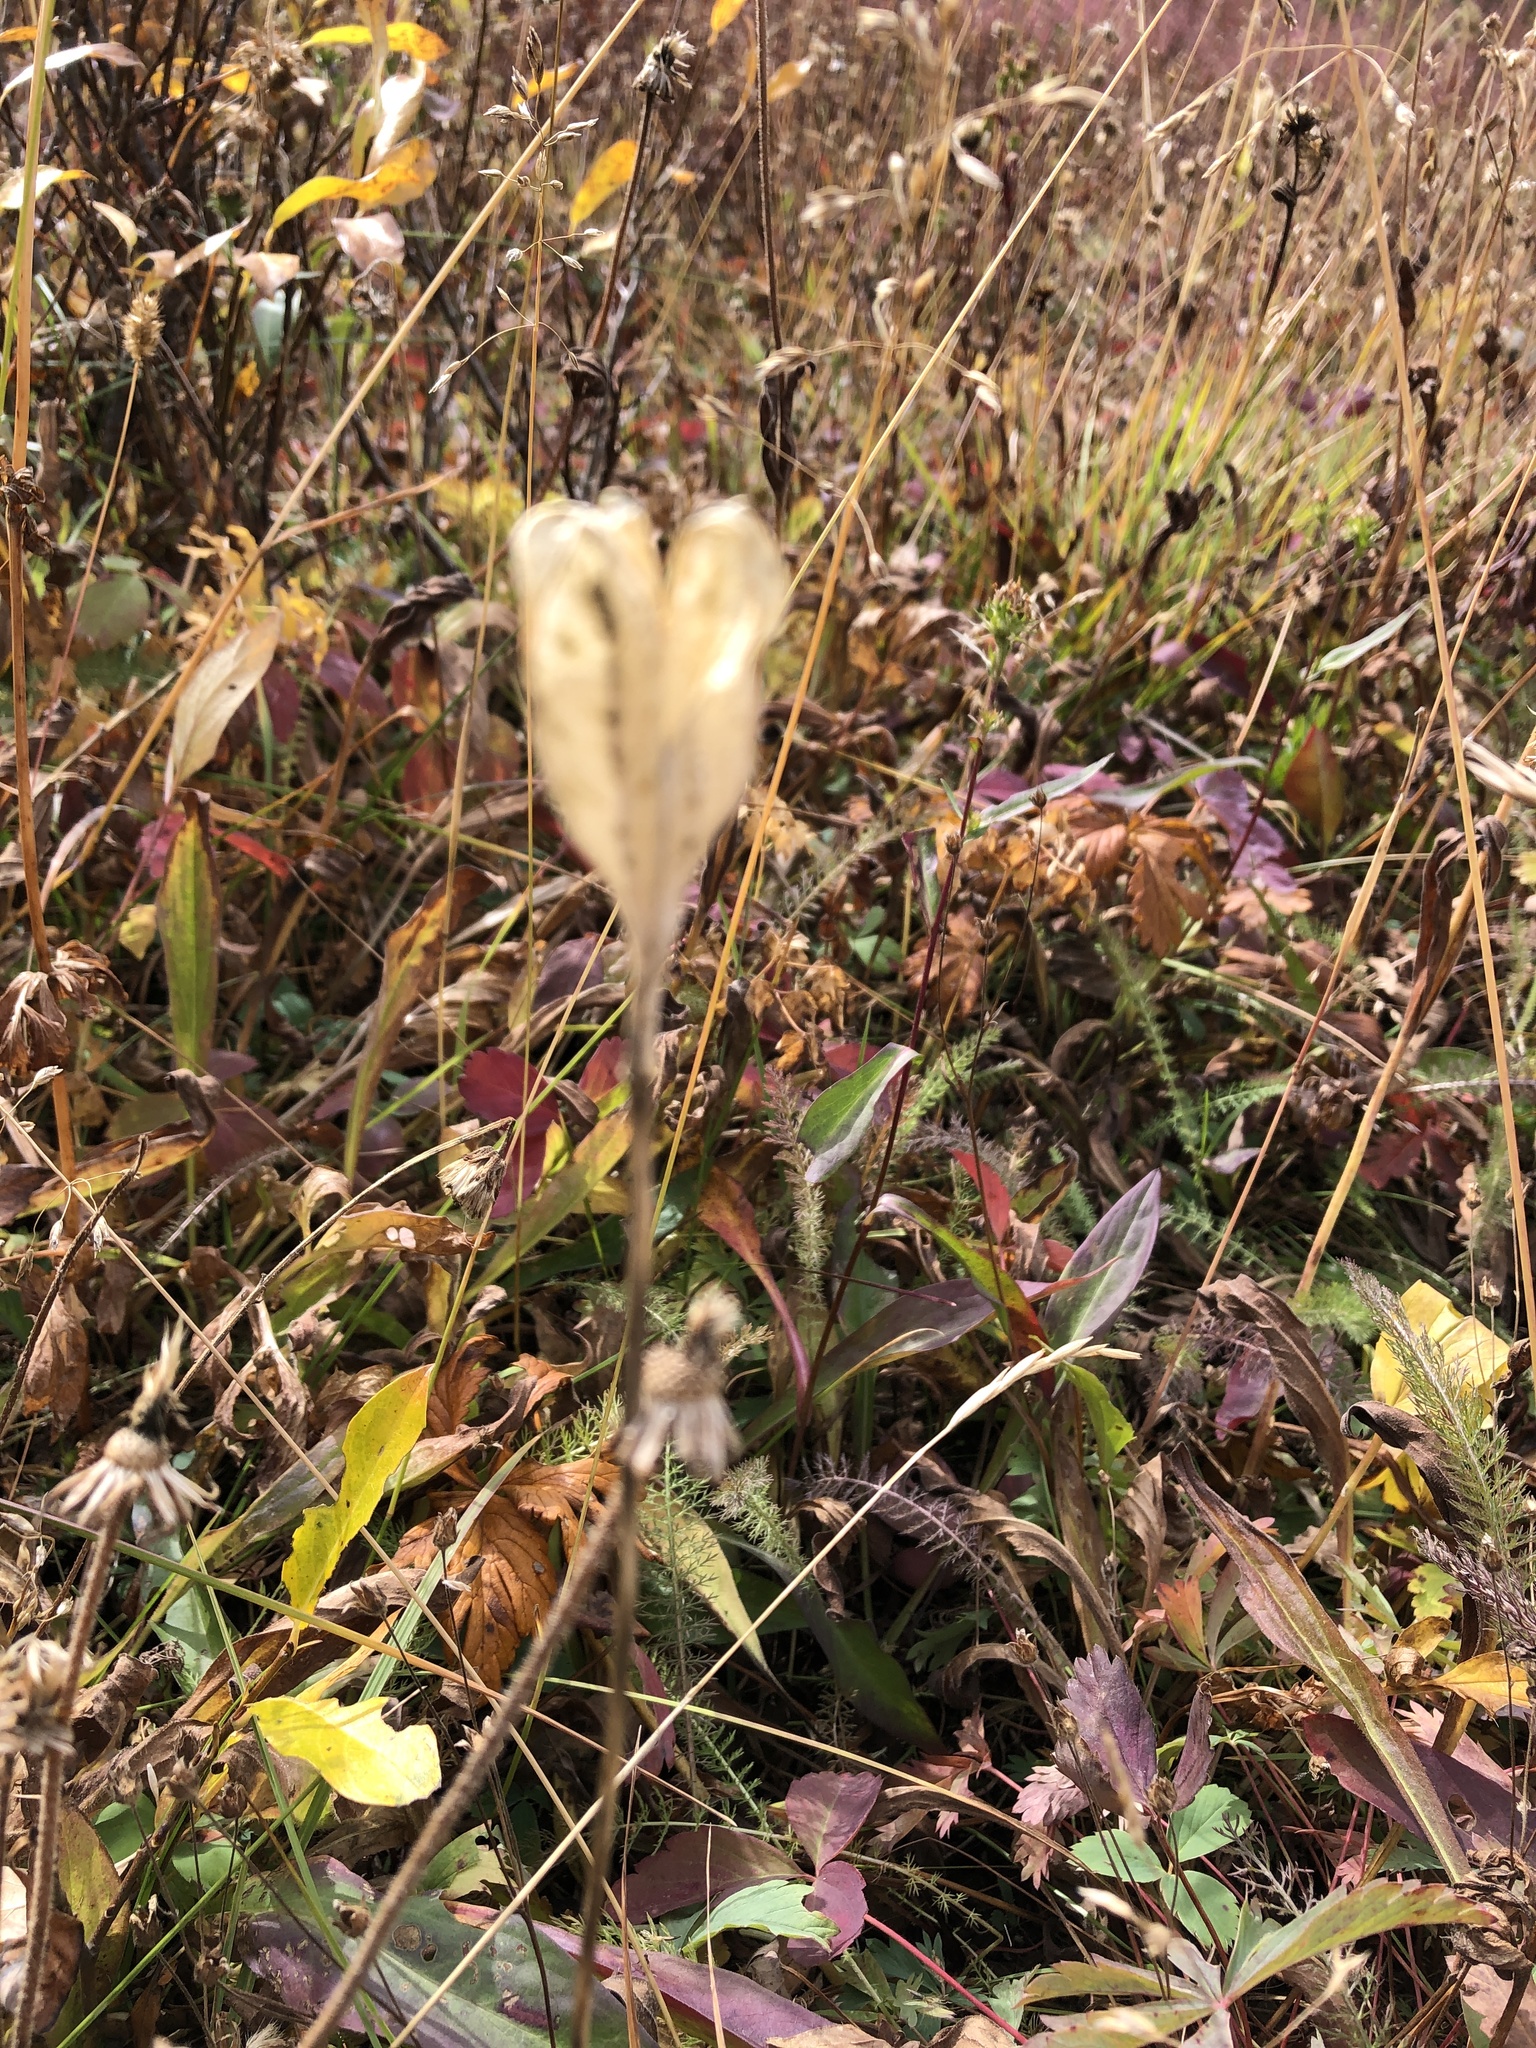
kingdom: Plantae
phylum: Tracheophyta
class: Liliopsida
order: Liliales
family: Liliaceae
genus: Erythronium
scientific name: Erythronium grandiflorum
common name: Avalanche-lily
